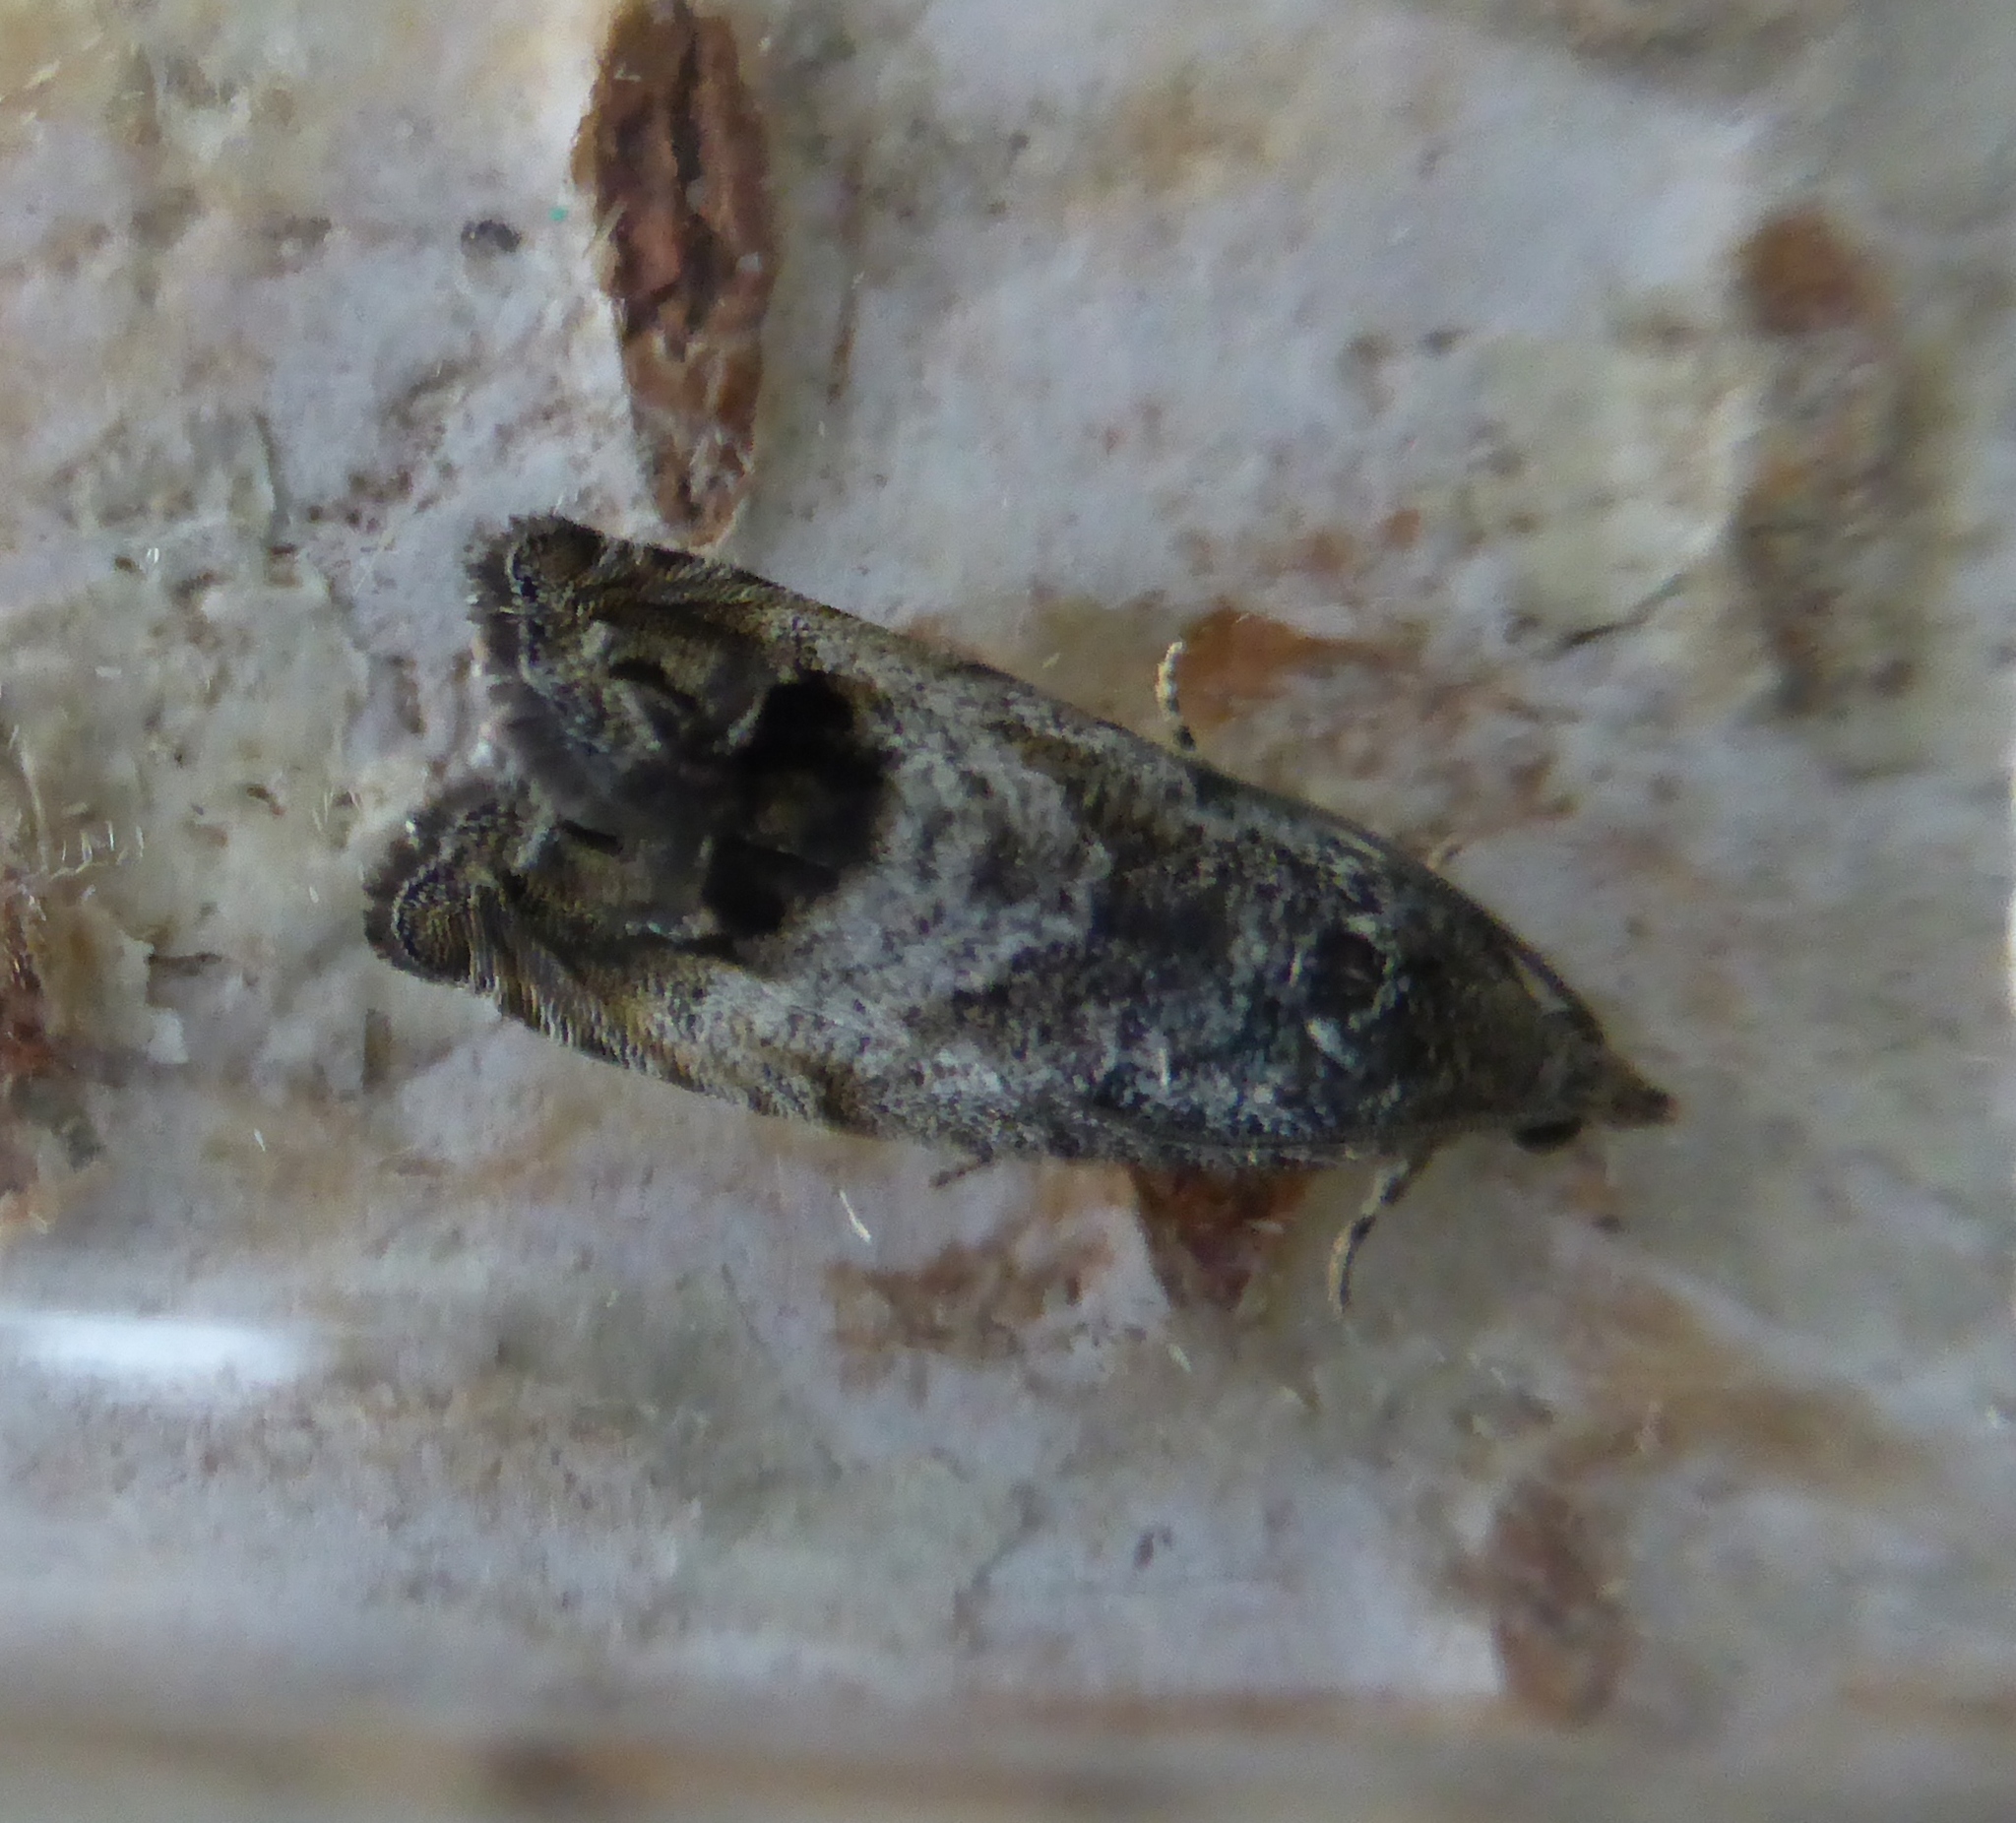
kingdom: Animalia
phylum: Arthropoda
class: Insecta
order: Lepidoptera
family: Tortricidae
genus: Cydia
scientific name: Cydia splendana
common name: De: kastanienwickler, eichenwickler es: oruga de la castaña fr: carpocapse des châtaignes it: cidia o tortrice tardiva delle castagne pt: bichado das castanhas gb: acorn moth, chestnut fruit tortrix
